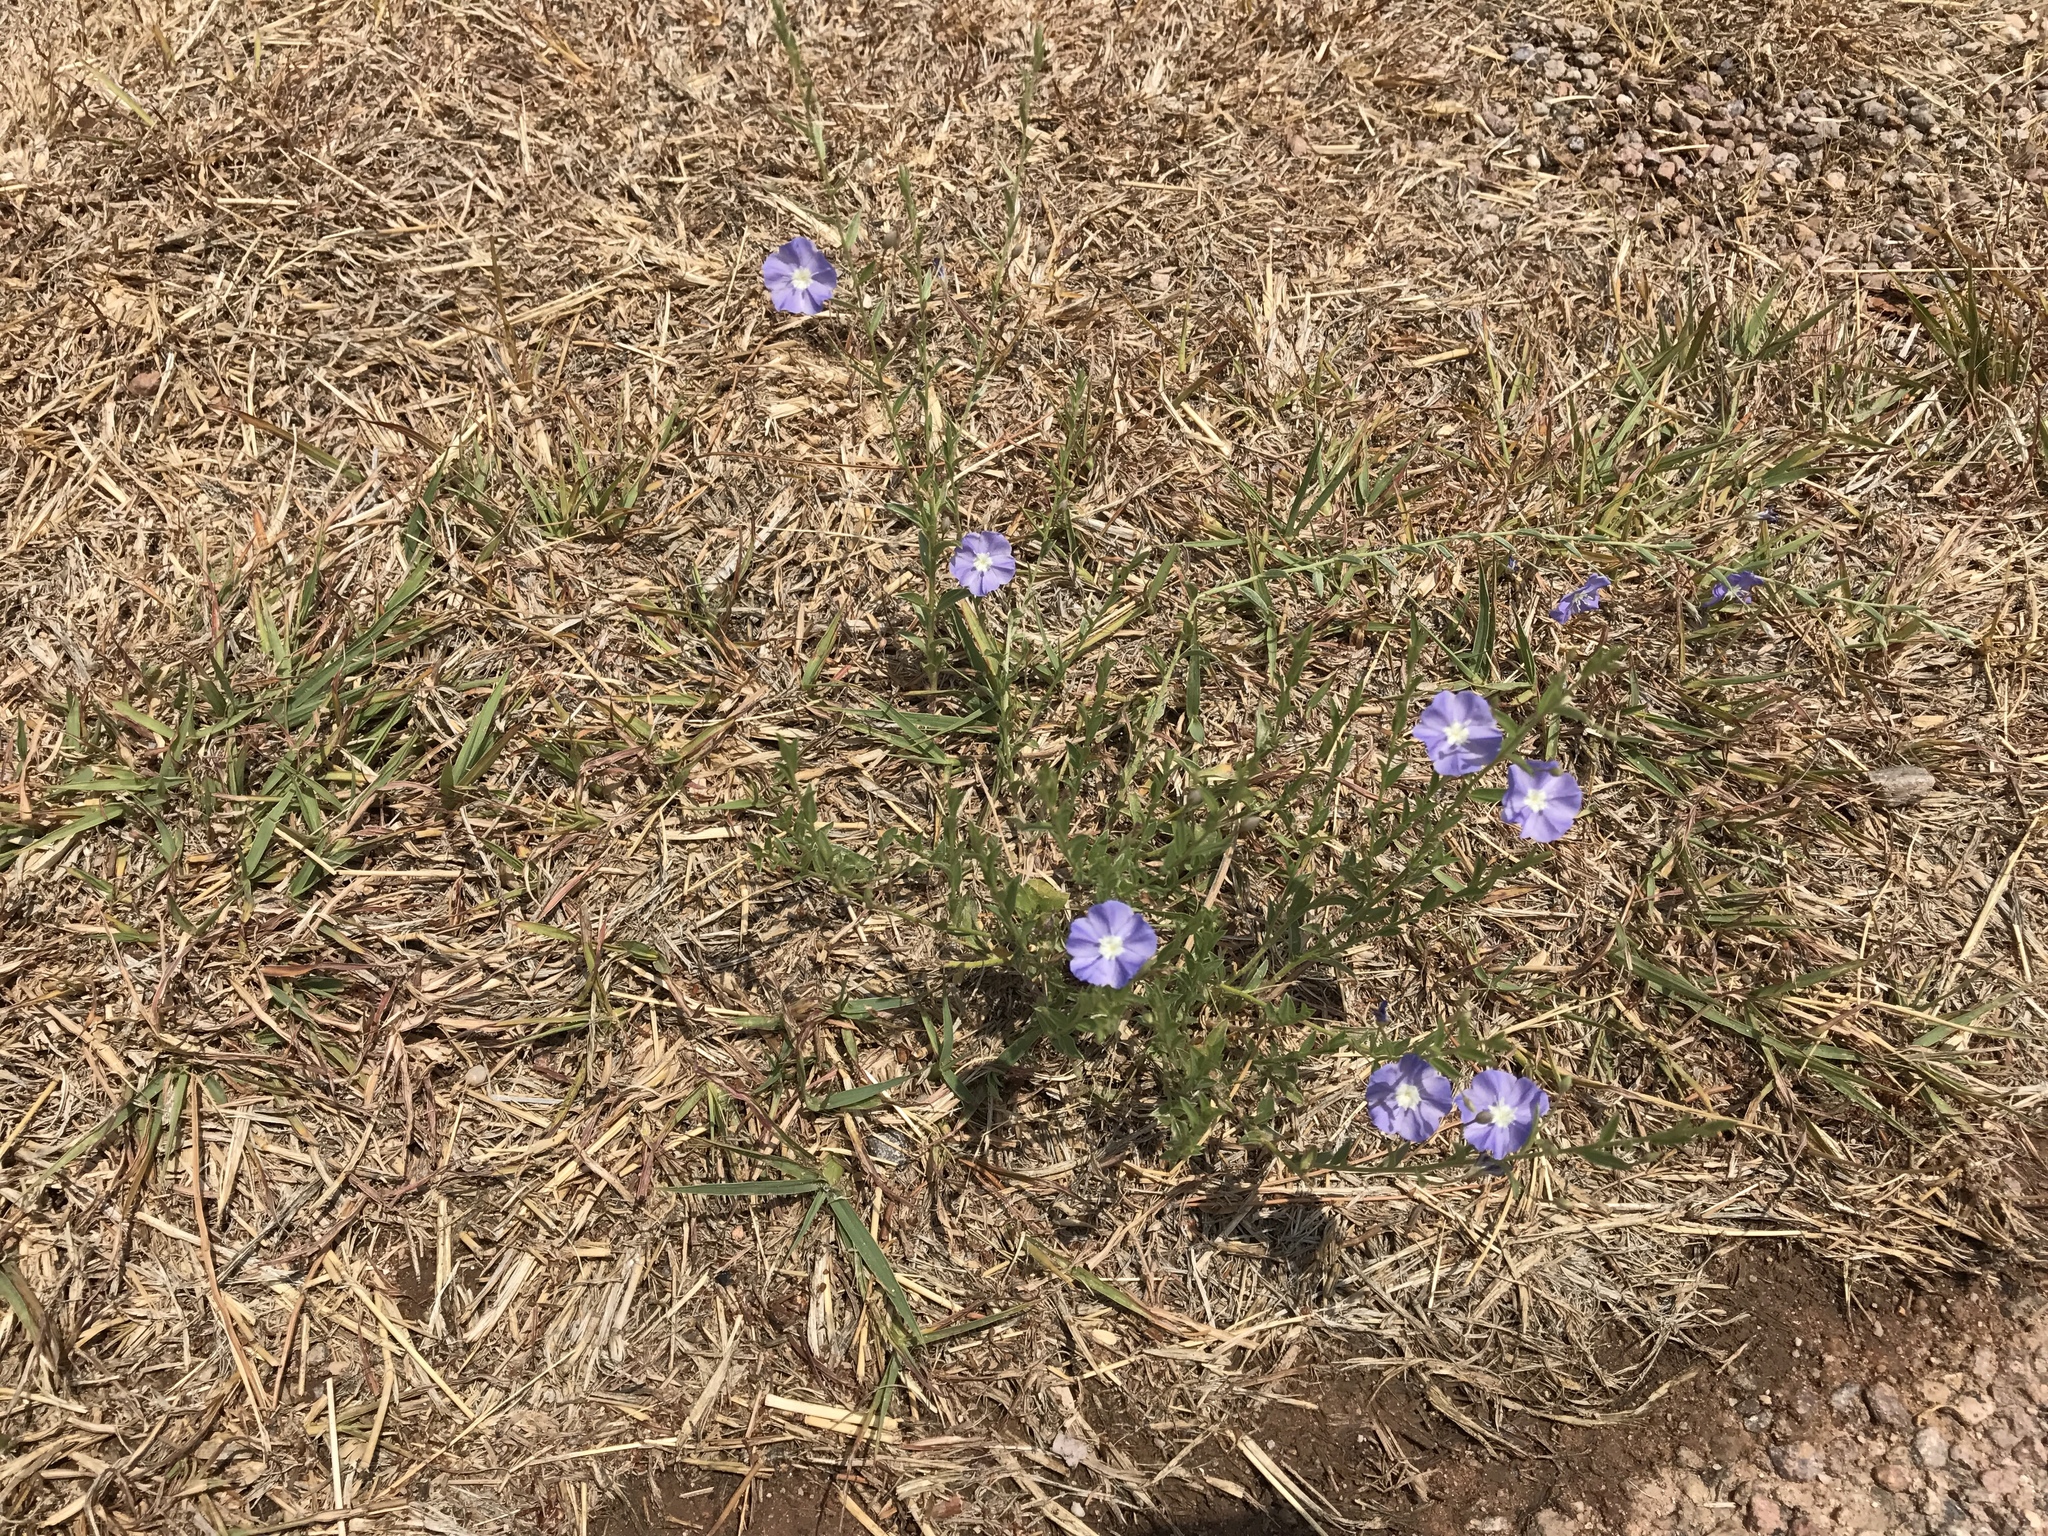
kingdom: Plantae
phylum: Tracheophyta
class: Magnoliopsida
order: Solanales
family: Convolvulaceae
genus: Evolvulus
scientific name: Evolvulus arizonicus
